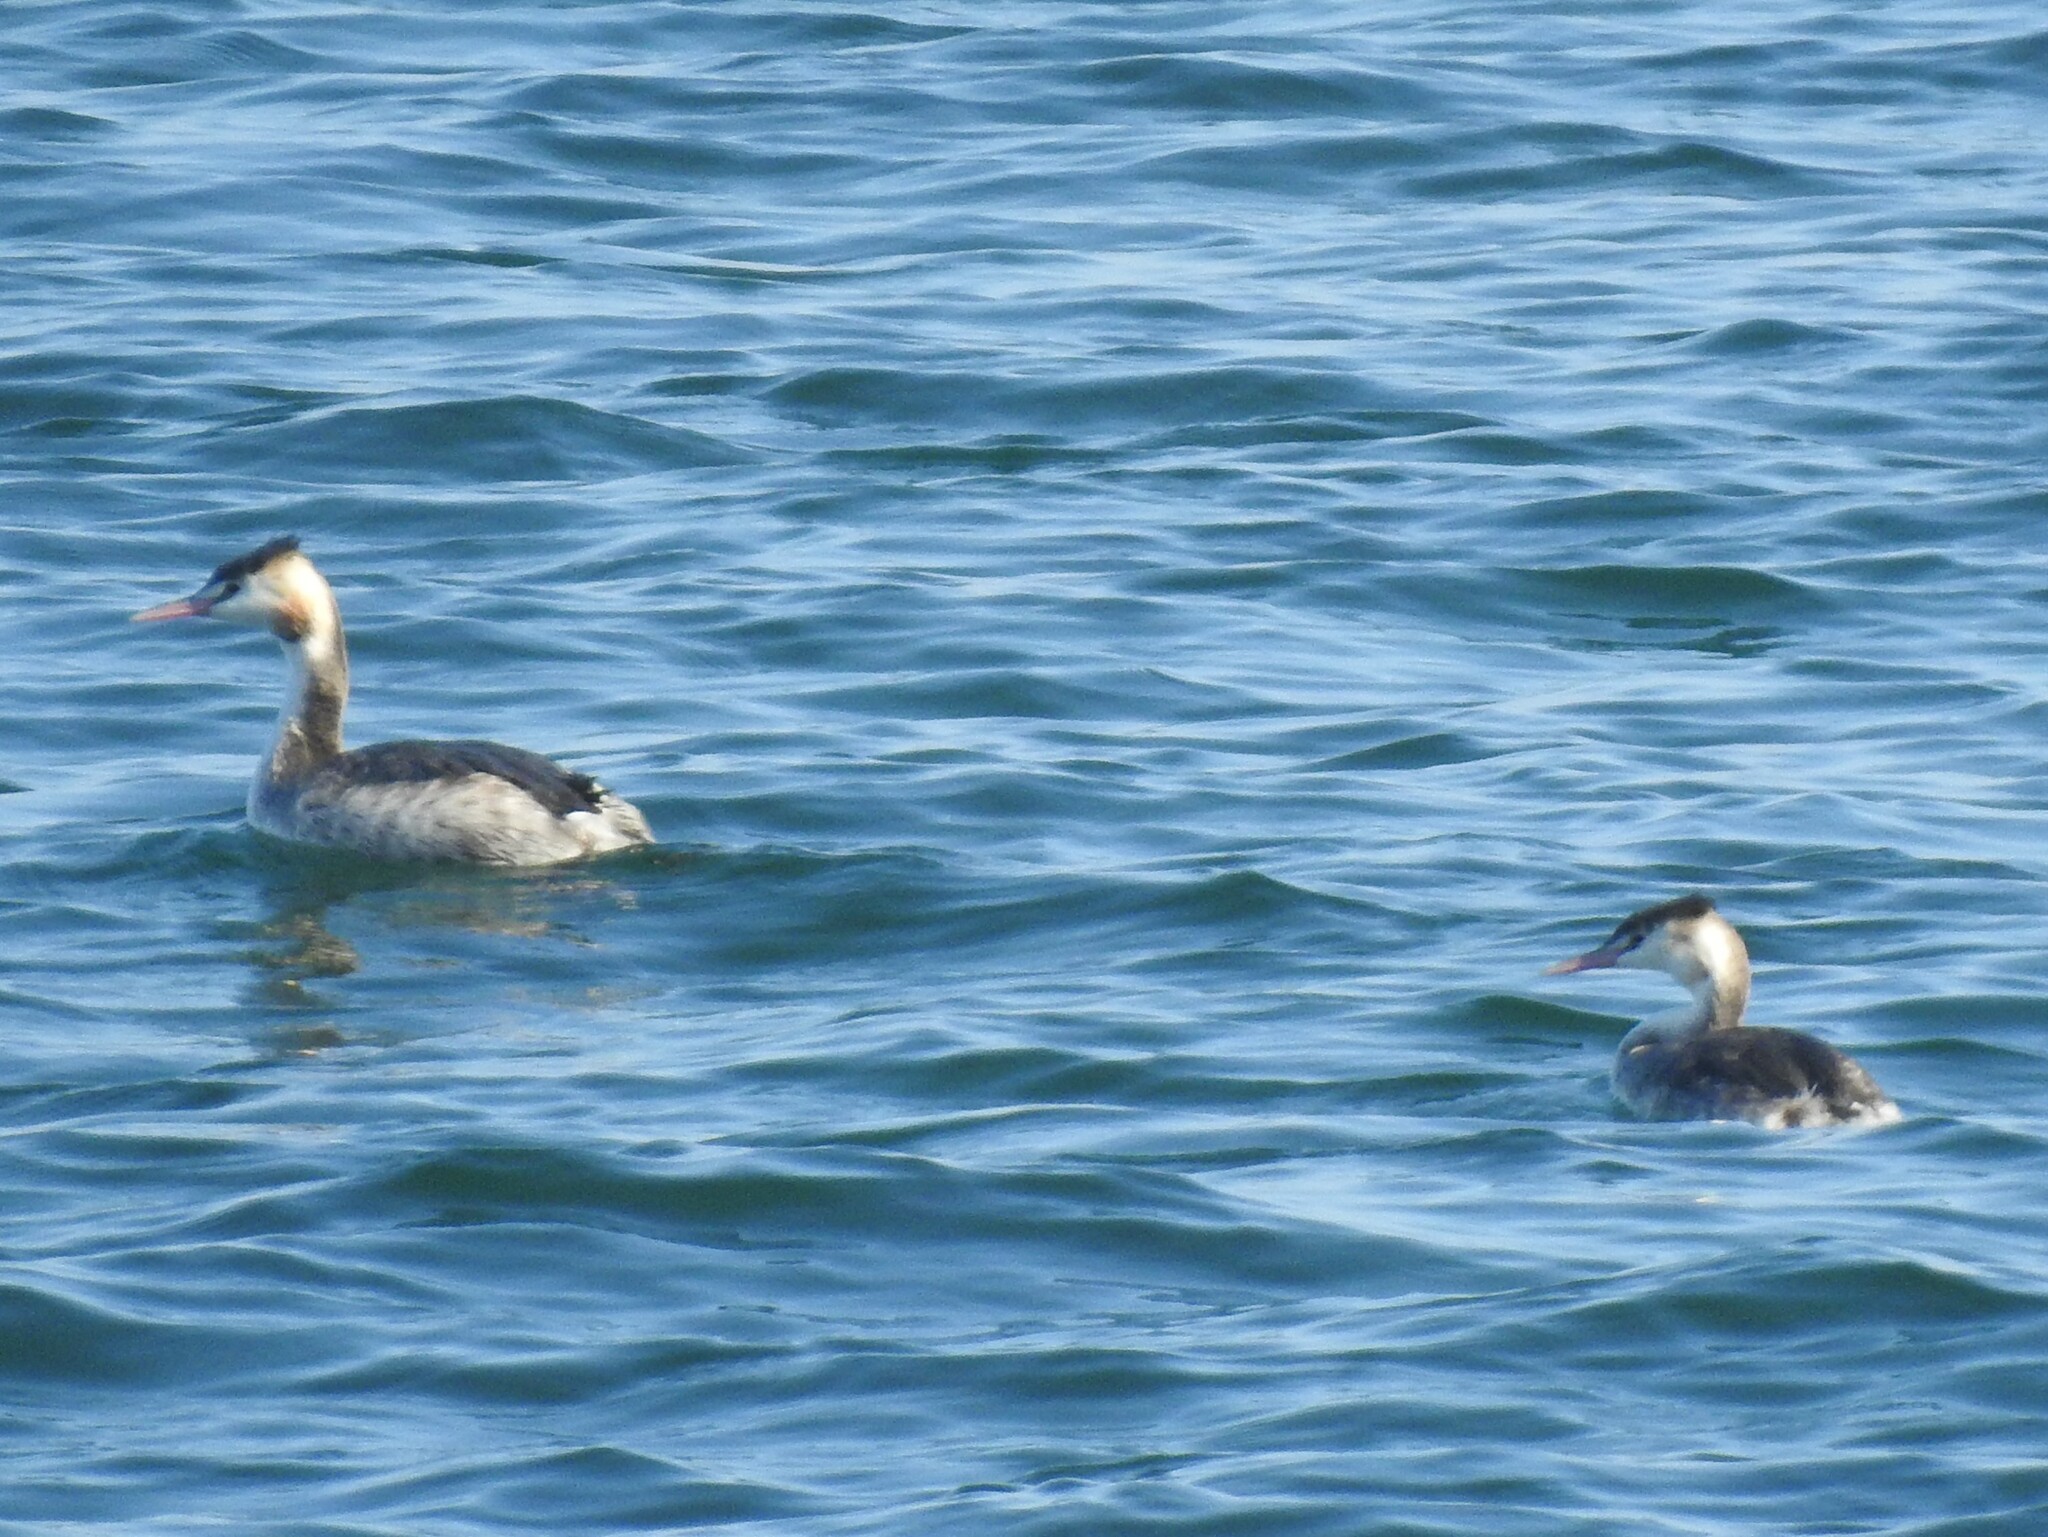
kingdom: Animalia
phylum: Chordata
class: Aves
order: Podicipediformes
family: Podicipedidae
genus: Podiceps
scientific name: Podiceps cristatus
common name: Great crested grebe
